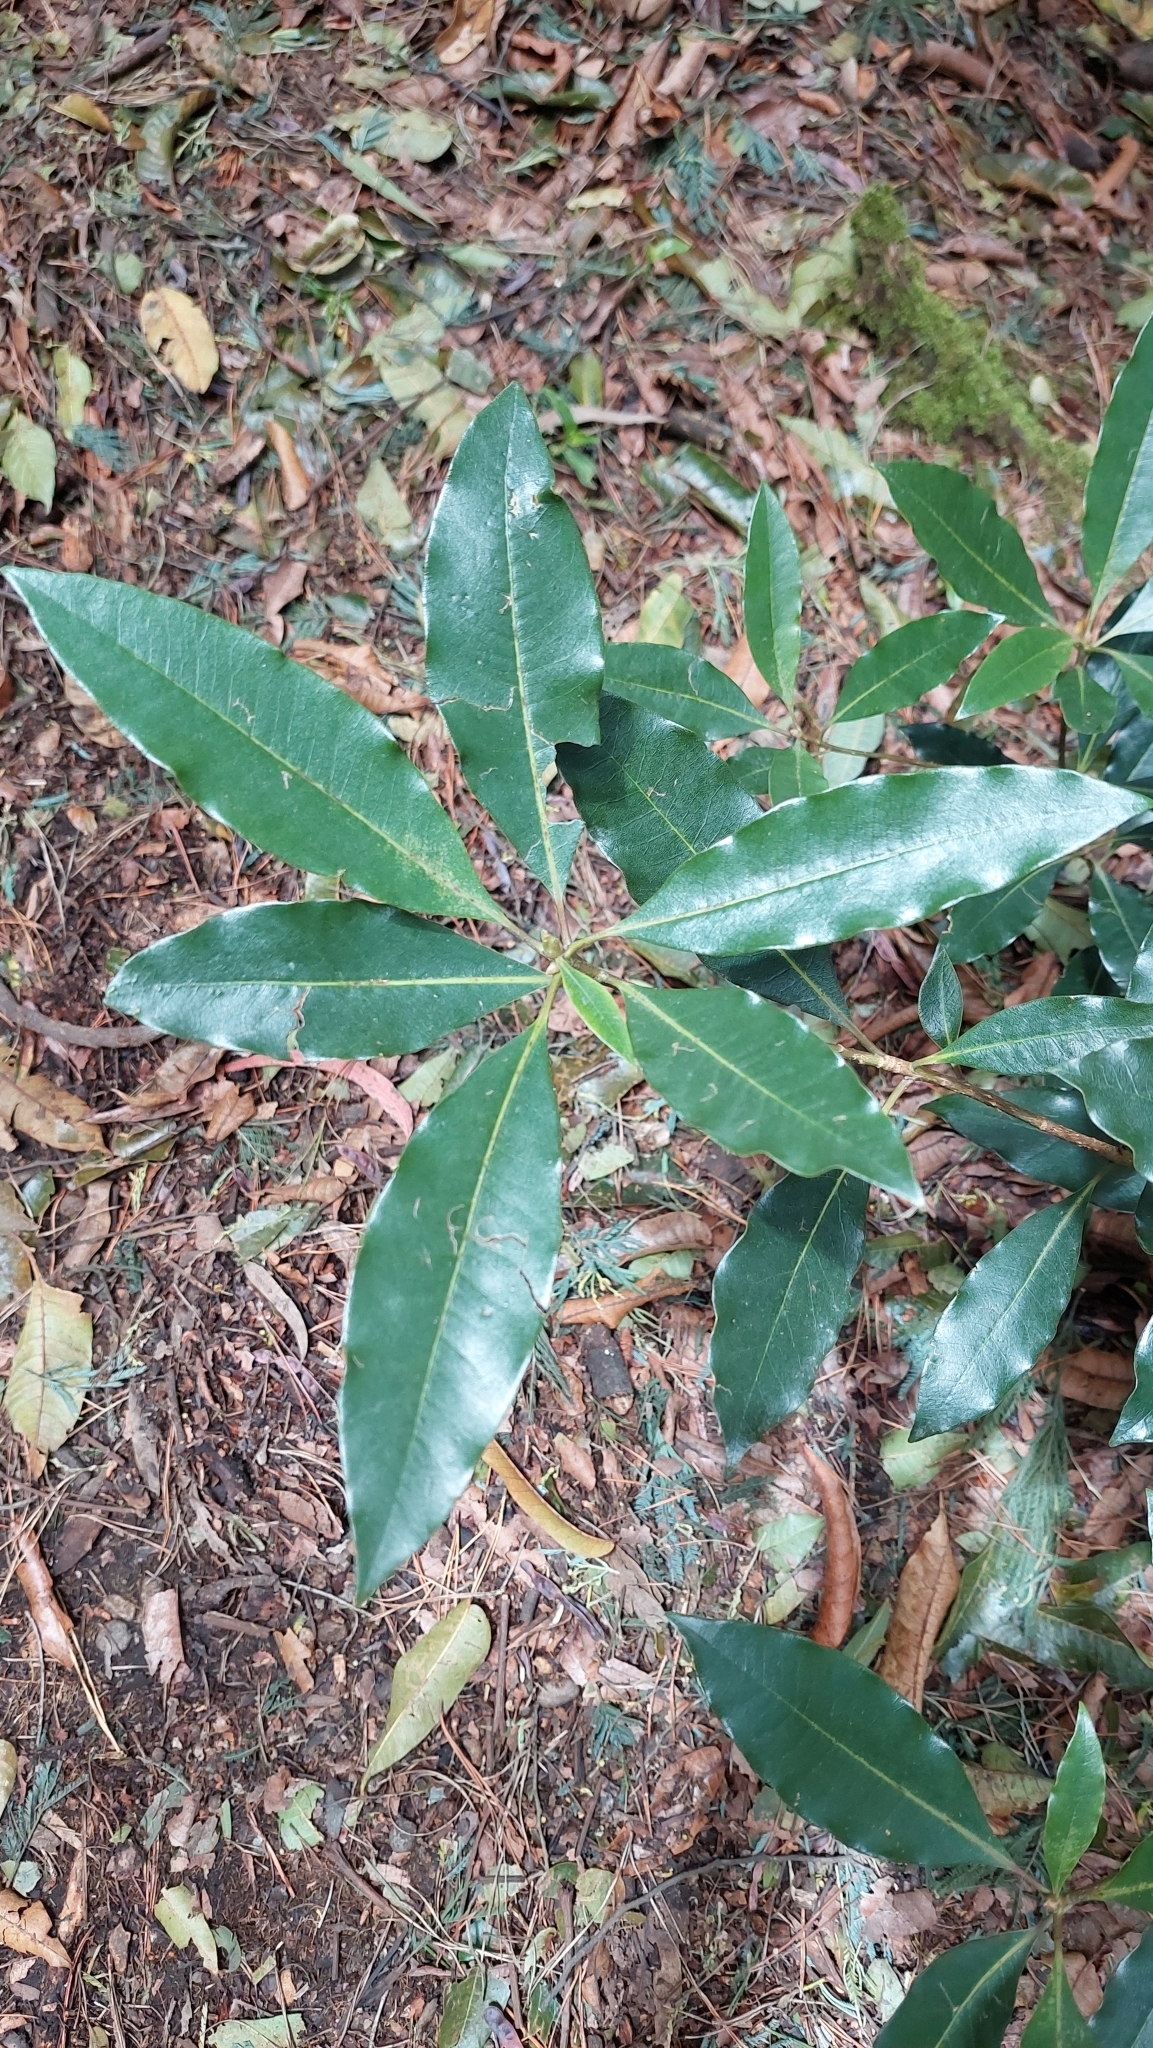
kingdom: Plantae
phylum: Tracheophyta
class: Magnoliopsida
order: Apiales
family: Pittosporaceae
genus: Pittosporum
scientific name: Pittosporum undulatum
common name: Australian cheesewood
